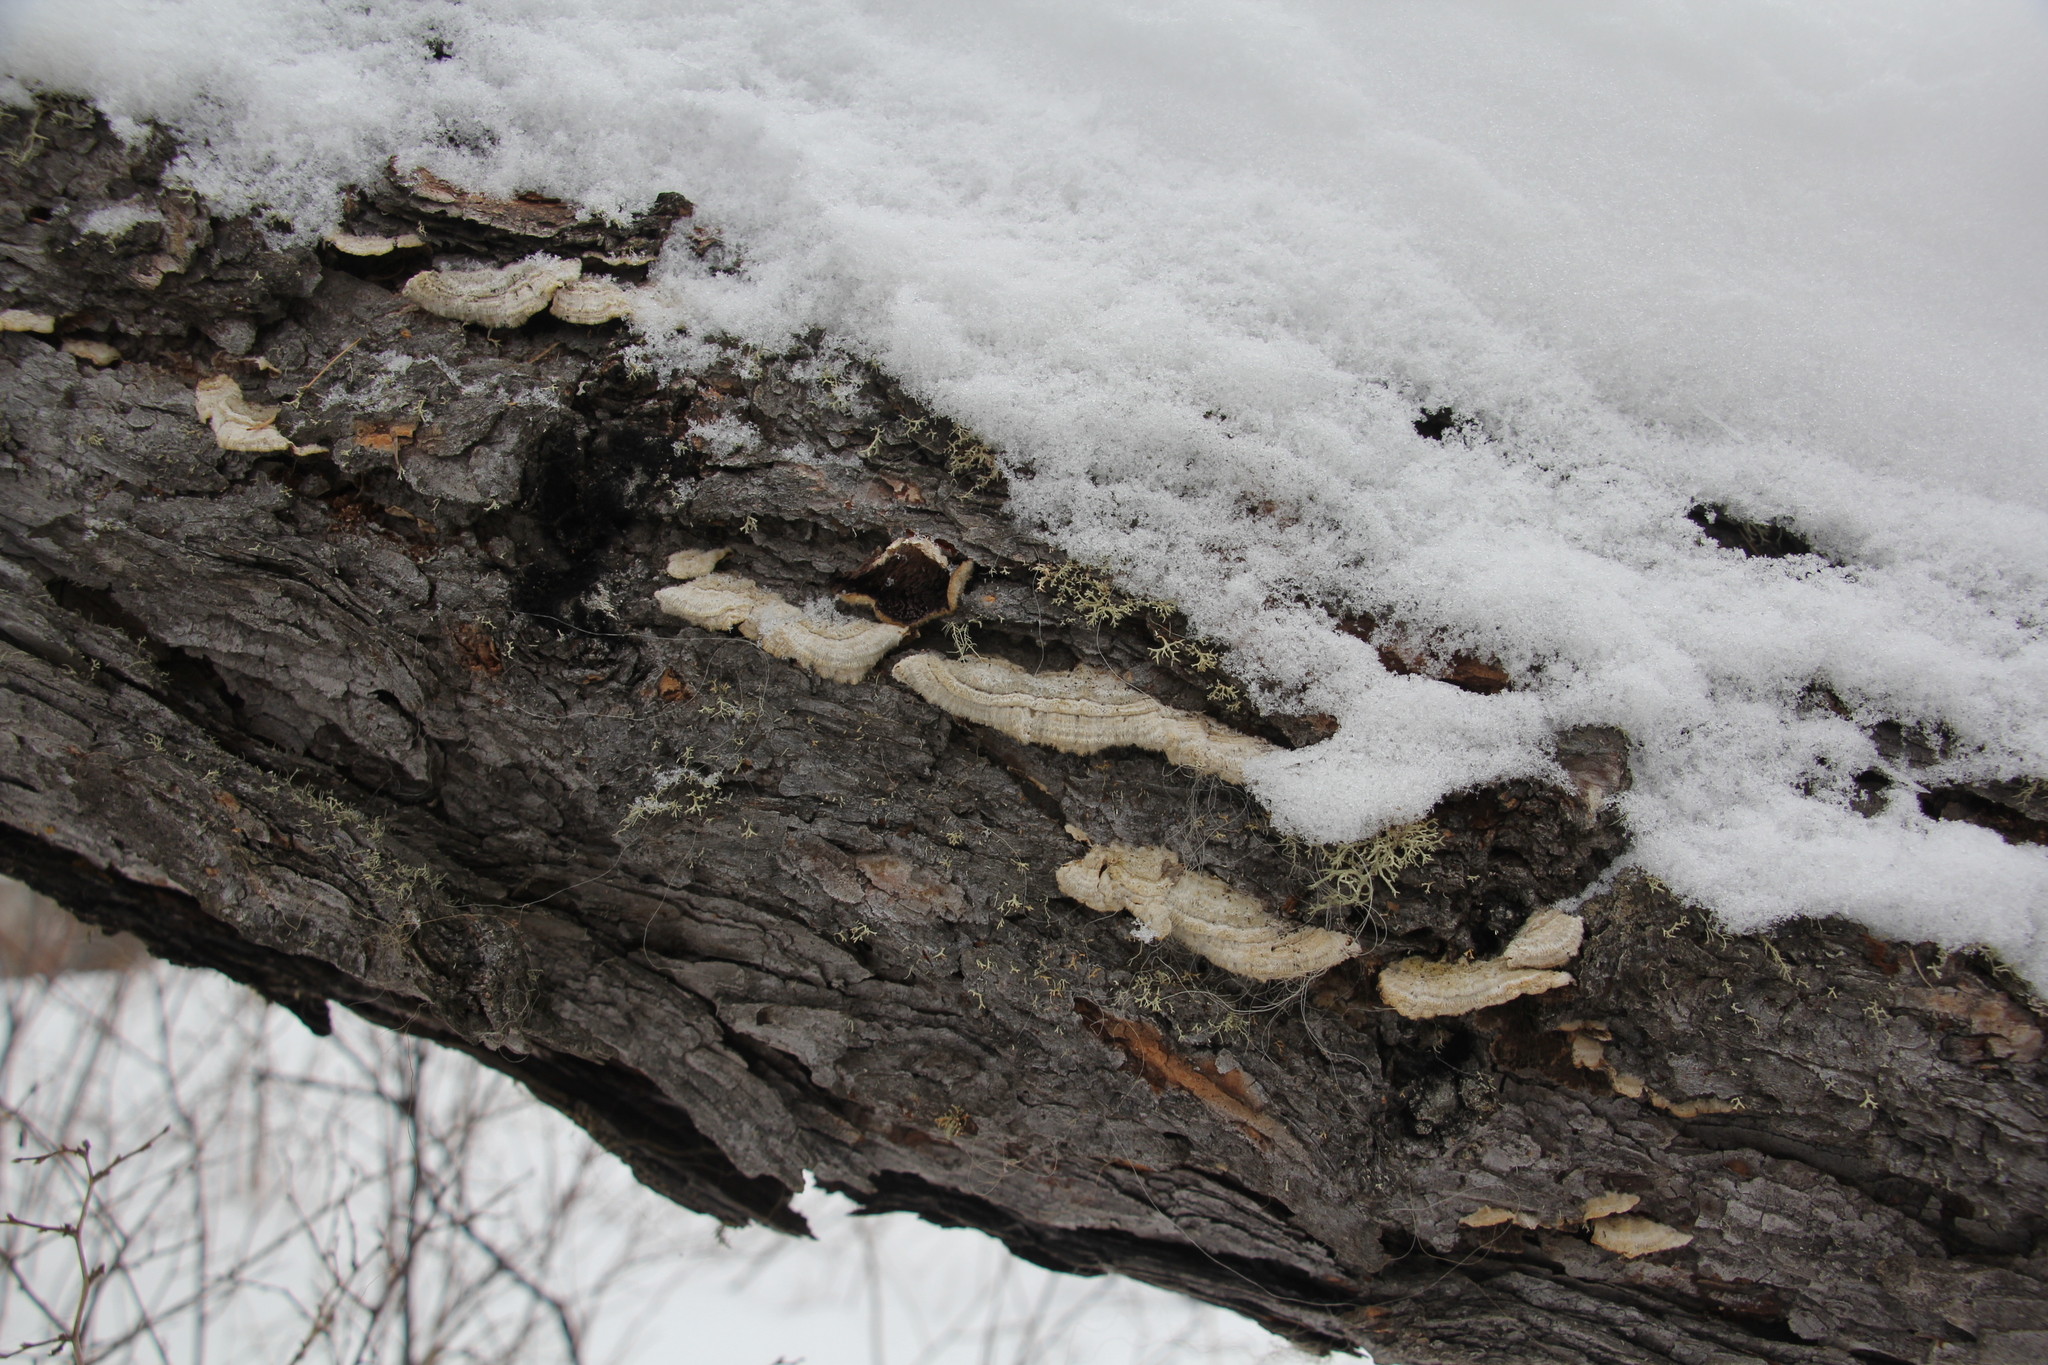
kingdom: Fungi
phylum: Basidiomycota
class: Agaricomycetes
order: Hymenochaetales
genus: Trichaptum
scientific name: Trichaptum fuscoviolaceum
